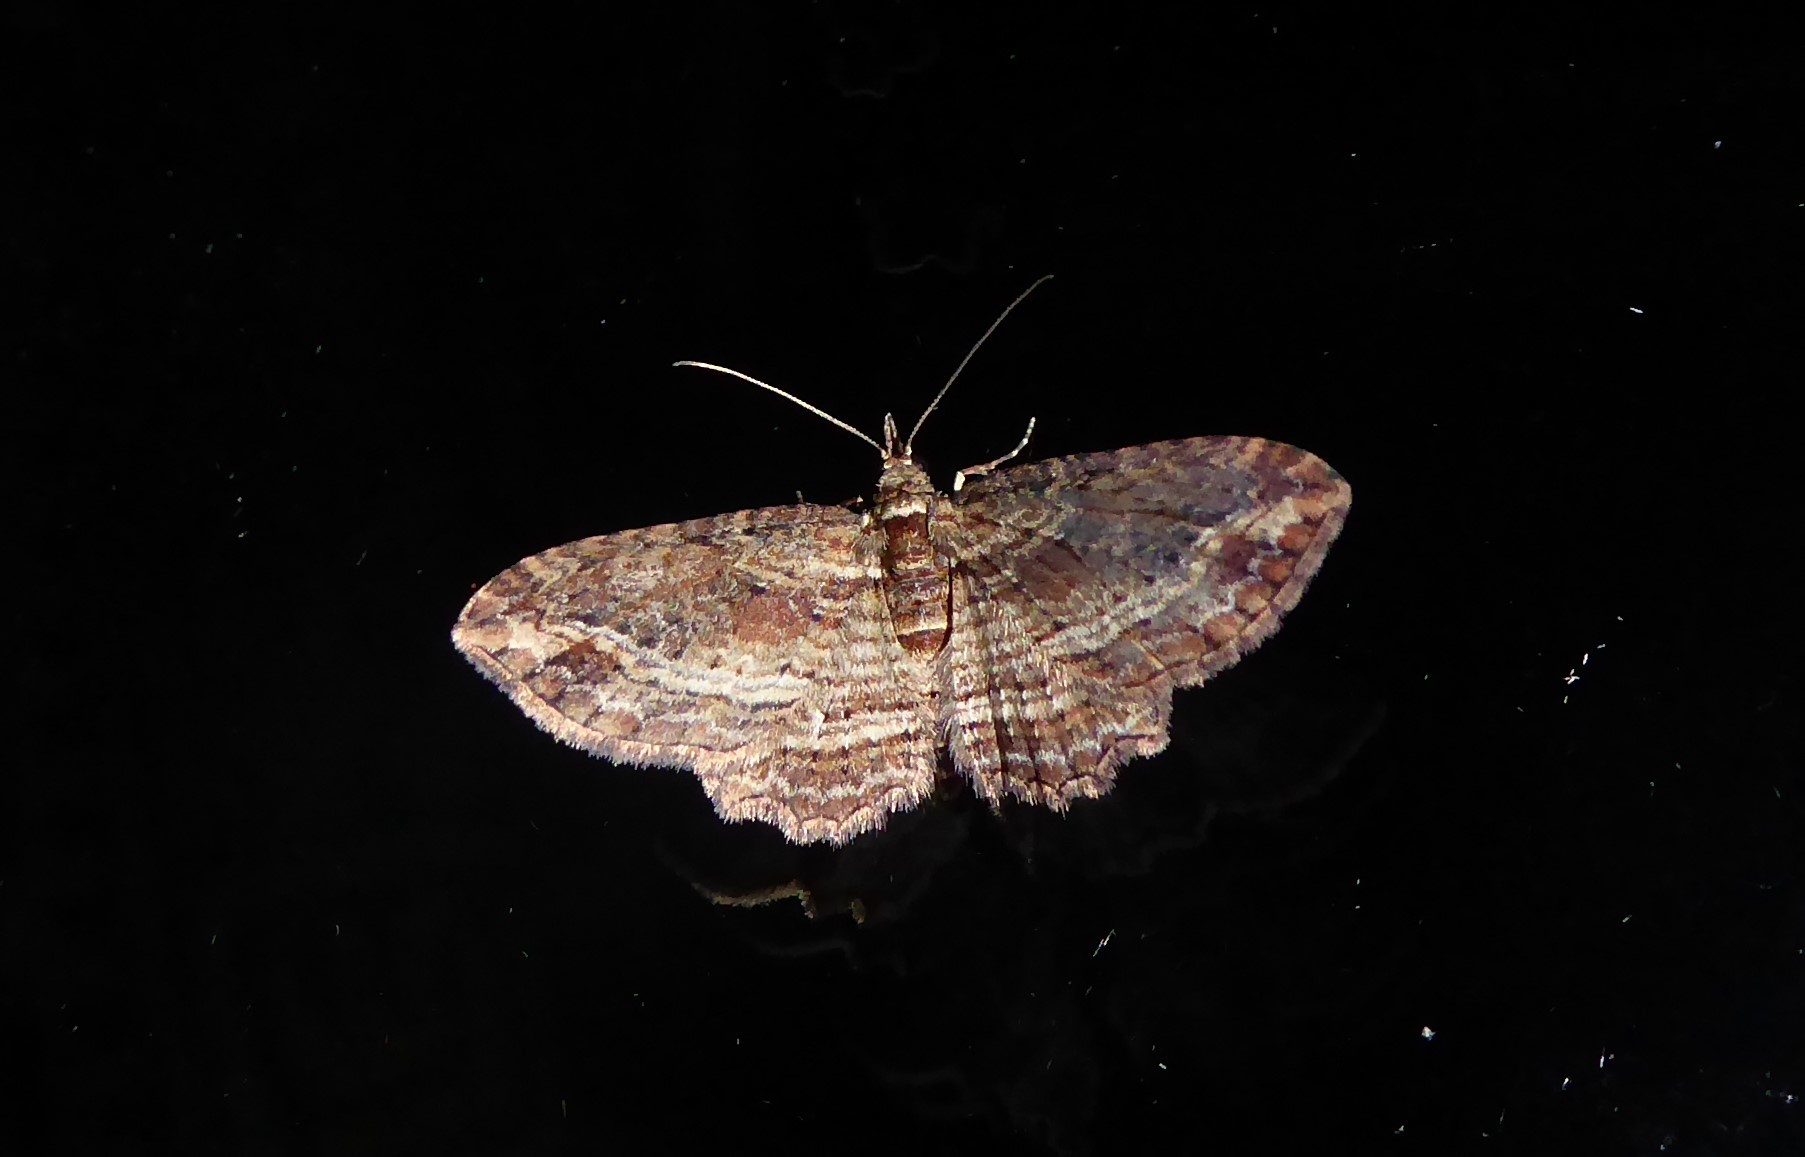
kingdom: Animalia
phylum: Arthropoda
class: Insecta
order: Lepidoptera
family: Geometridae
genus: Chloroclystis
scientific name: Chloroclystis filata
